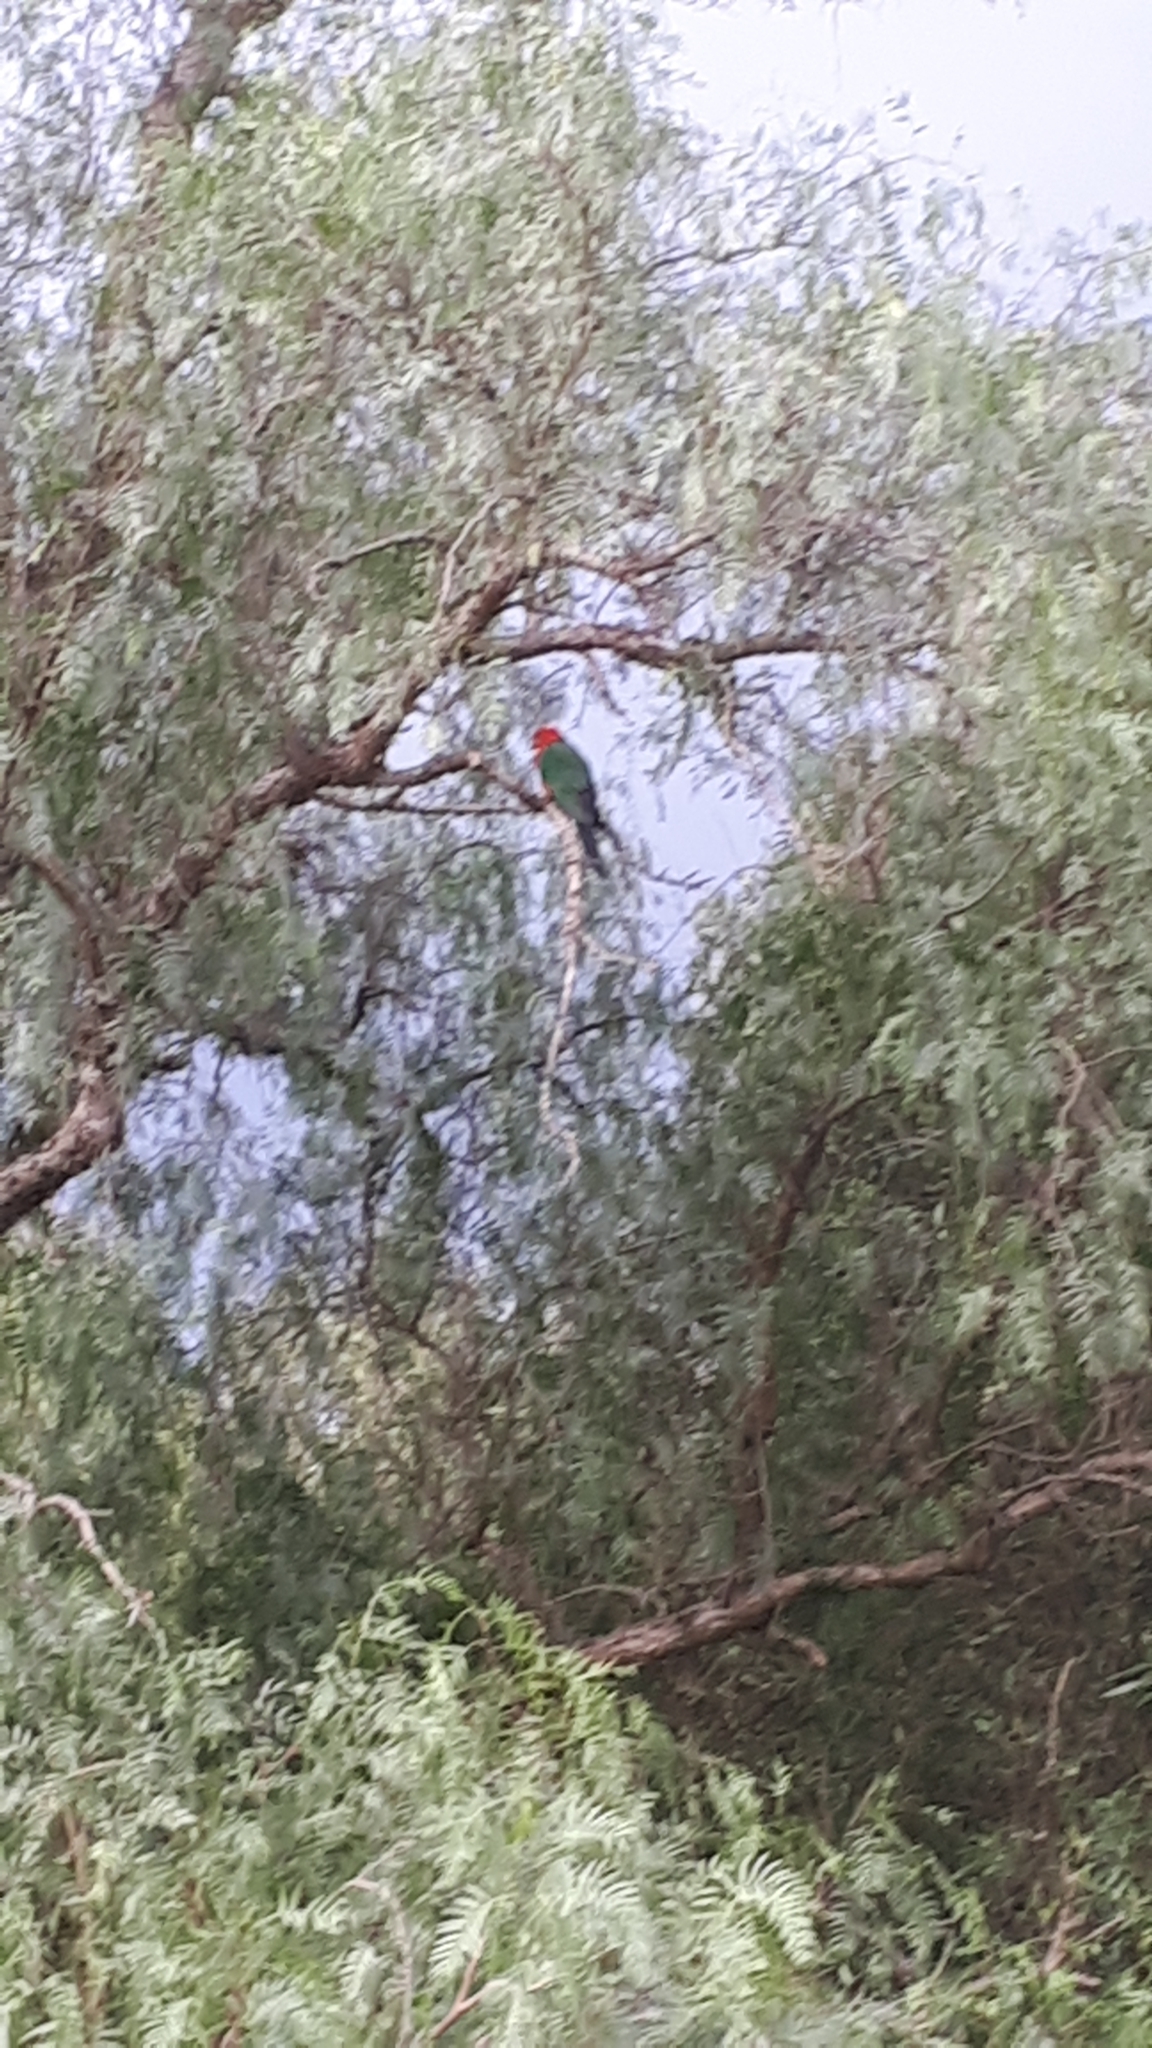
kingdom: Animalia
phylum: Chordata
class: Aves
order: Psittaciformes
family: Psittacidae
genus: Alisterus
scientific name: Alisterus scapularis
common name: Australian king parrot
